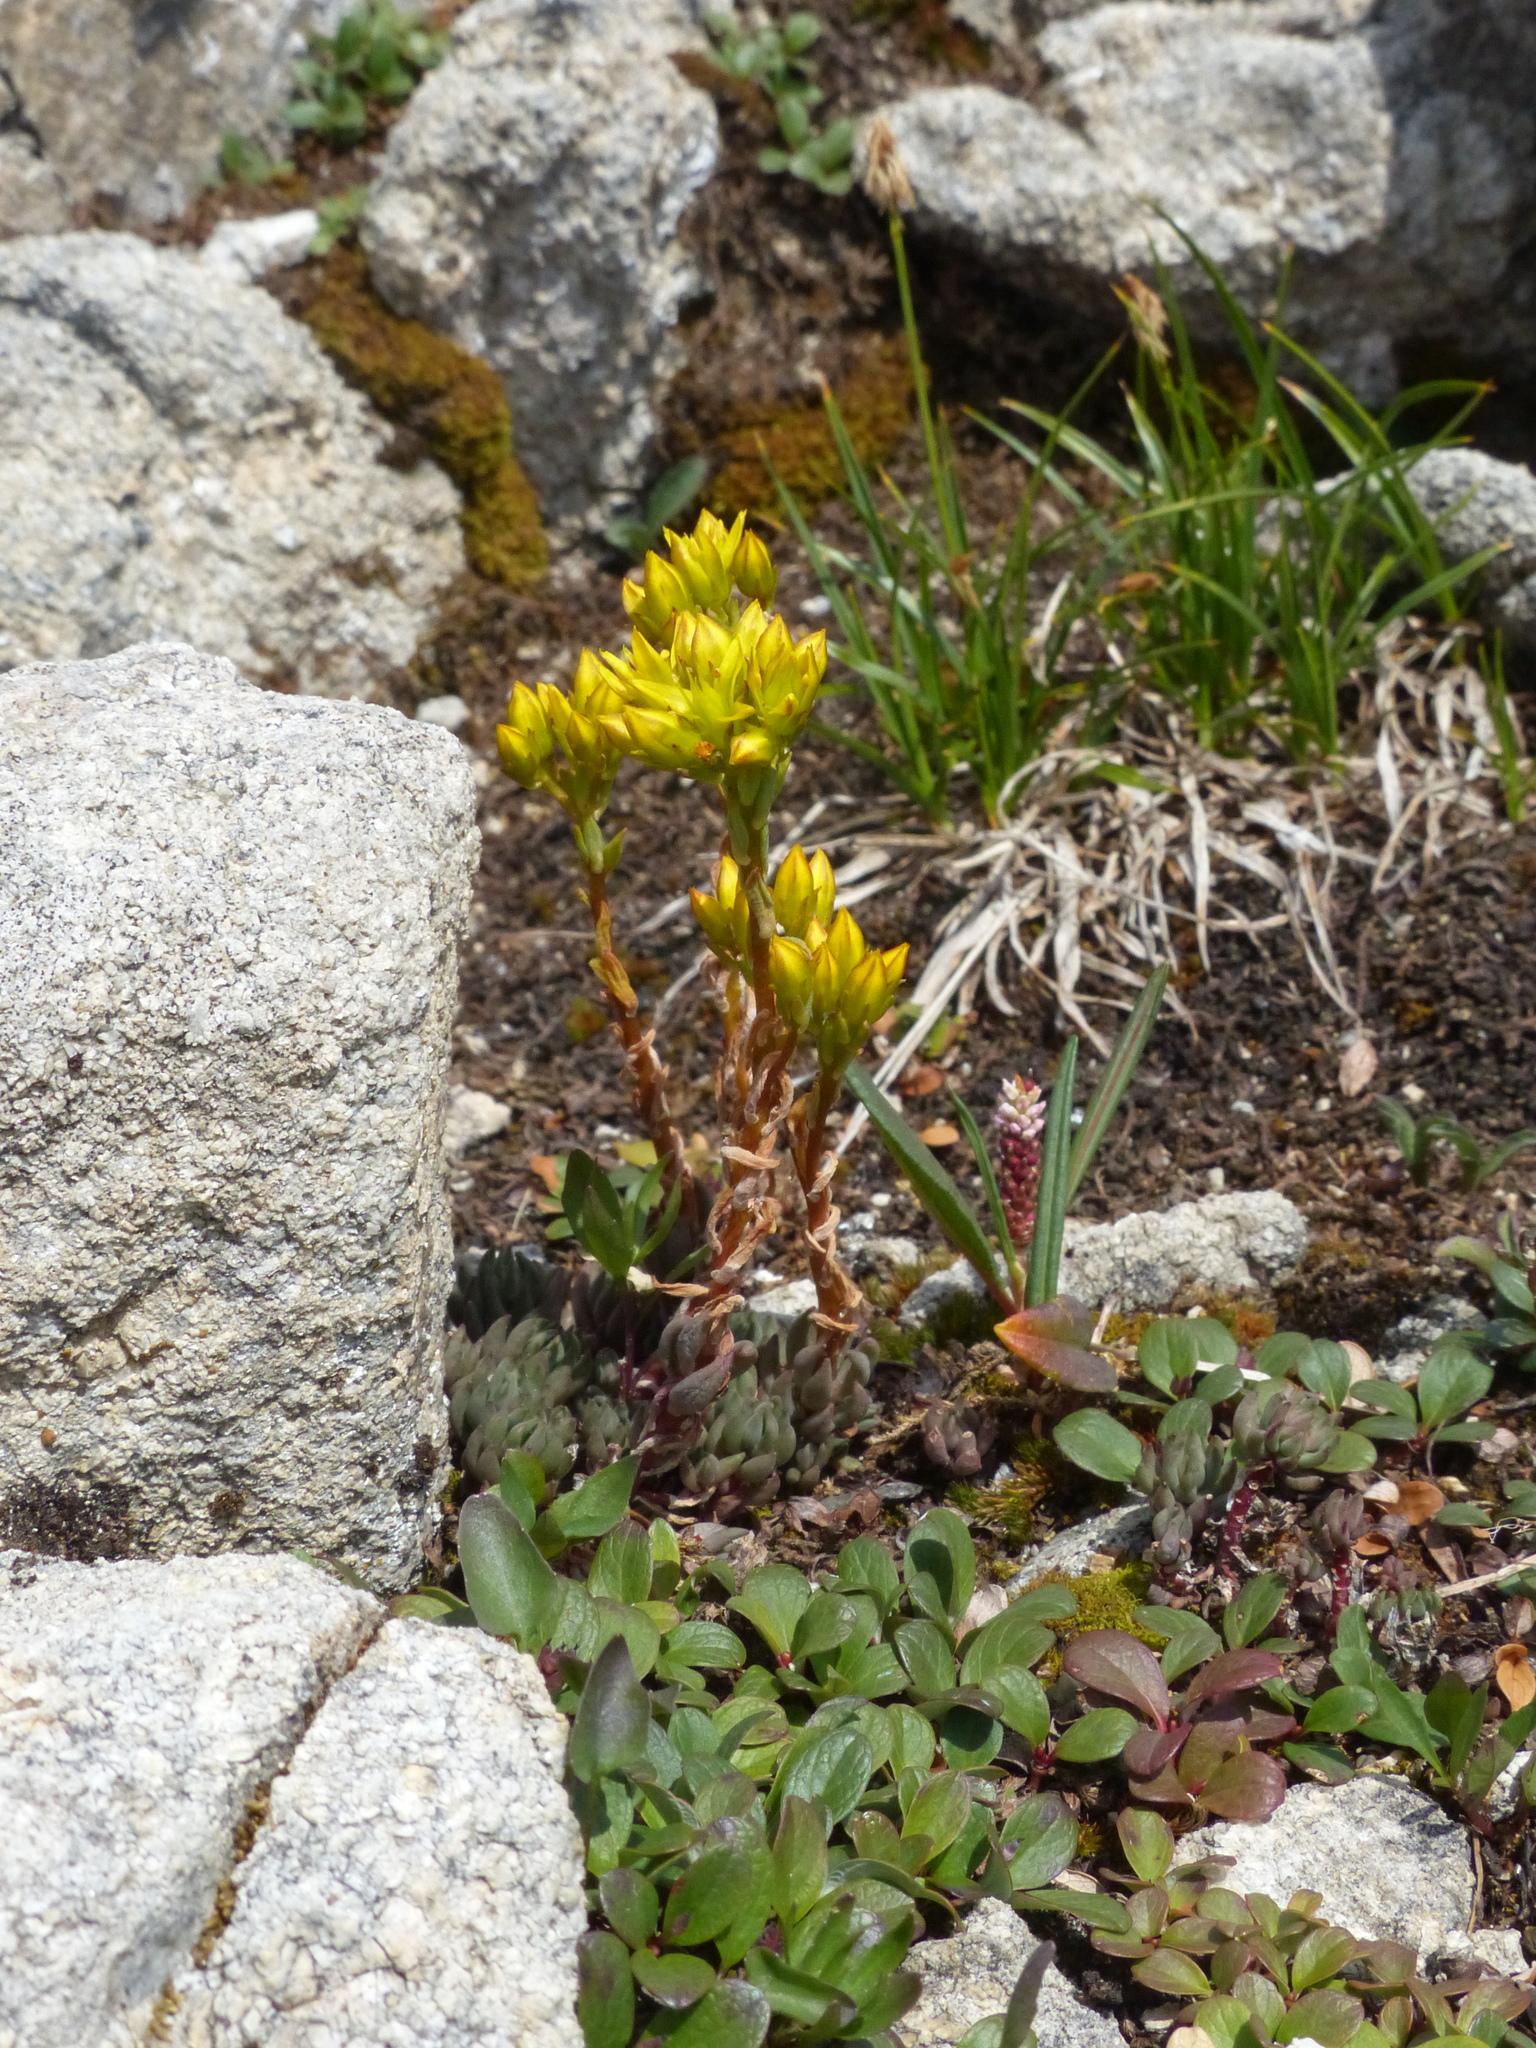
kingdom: Plantae
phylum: Tracheophyta
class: Magnoliopsida
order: Saxifragales
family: Crassulaceae
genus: Sedum
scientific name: Sedum lanceolatum
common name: Common stonecrop
